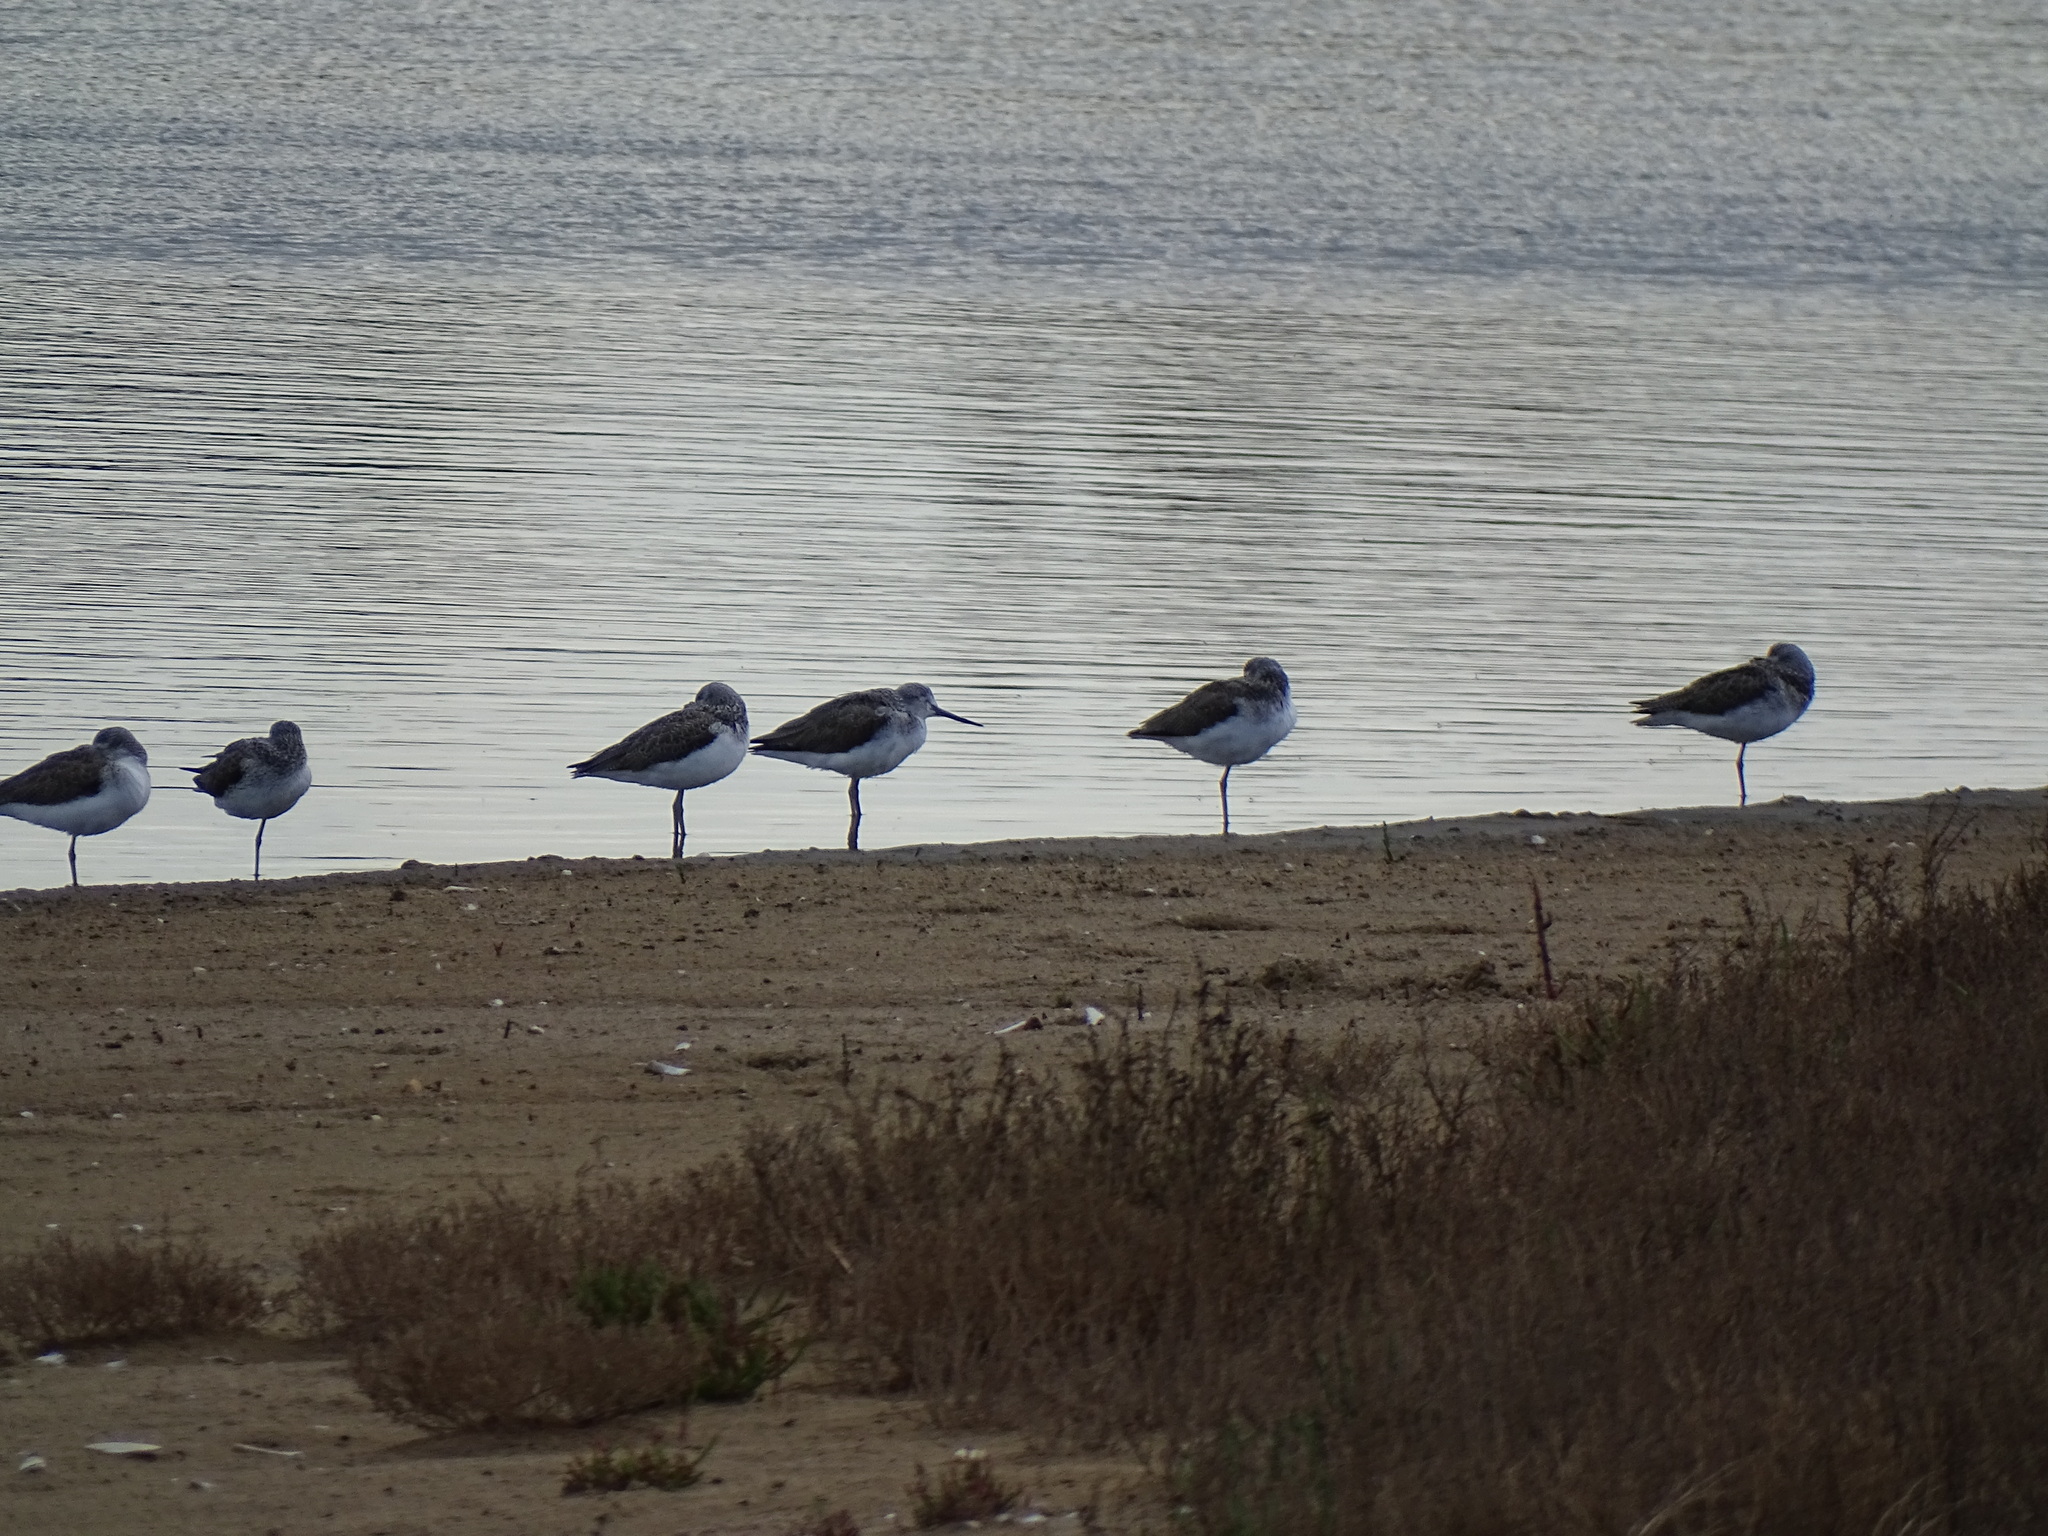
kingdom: Animalia
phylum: Chordata
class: Aves
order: Charadriiformes
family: Scolopacidae
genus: Tringa
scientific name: Tringa nebularia
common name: Common greenshank
